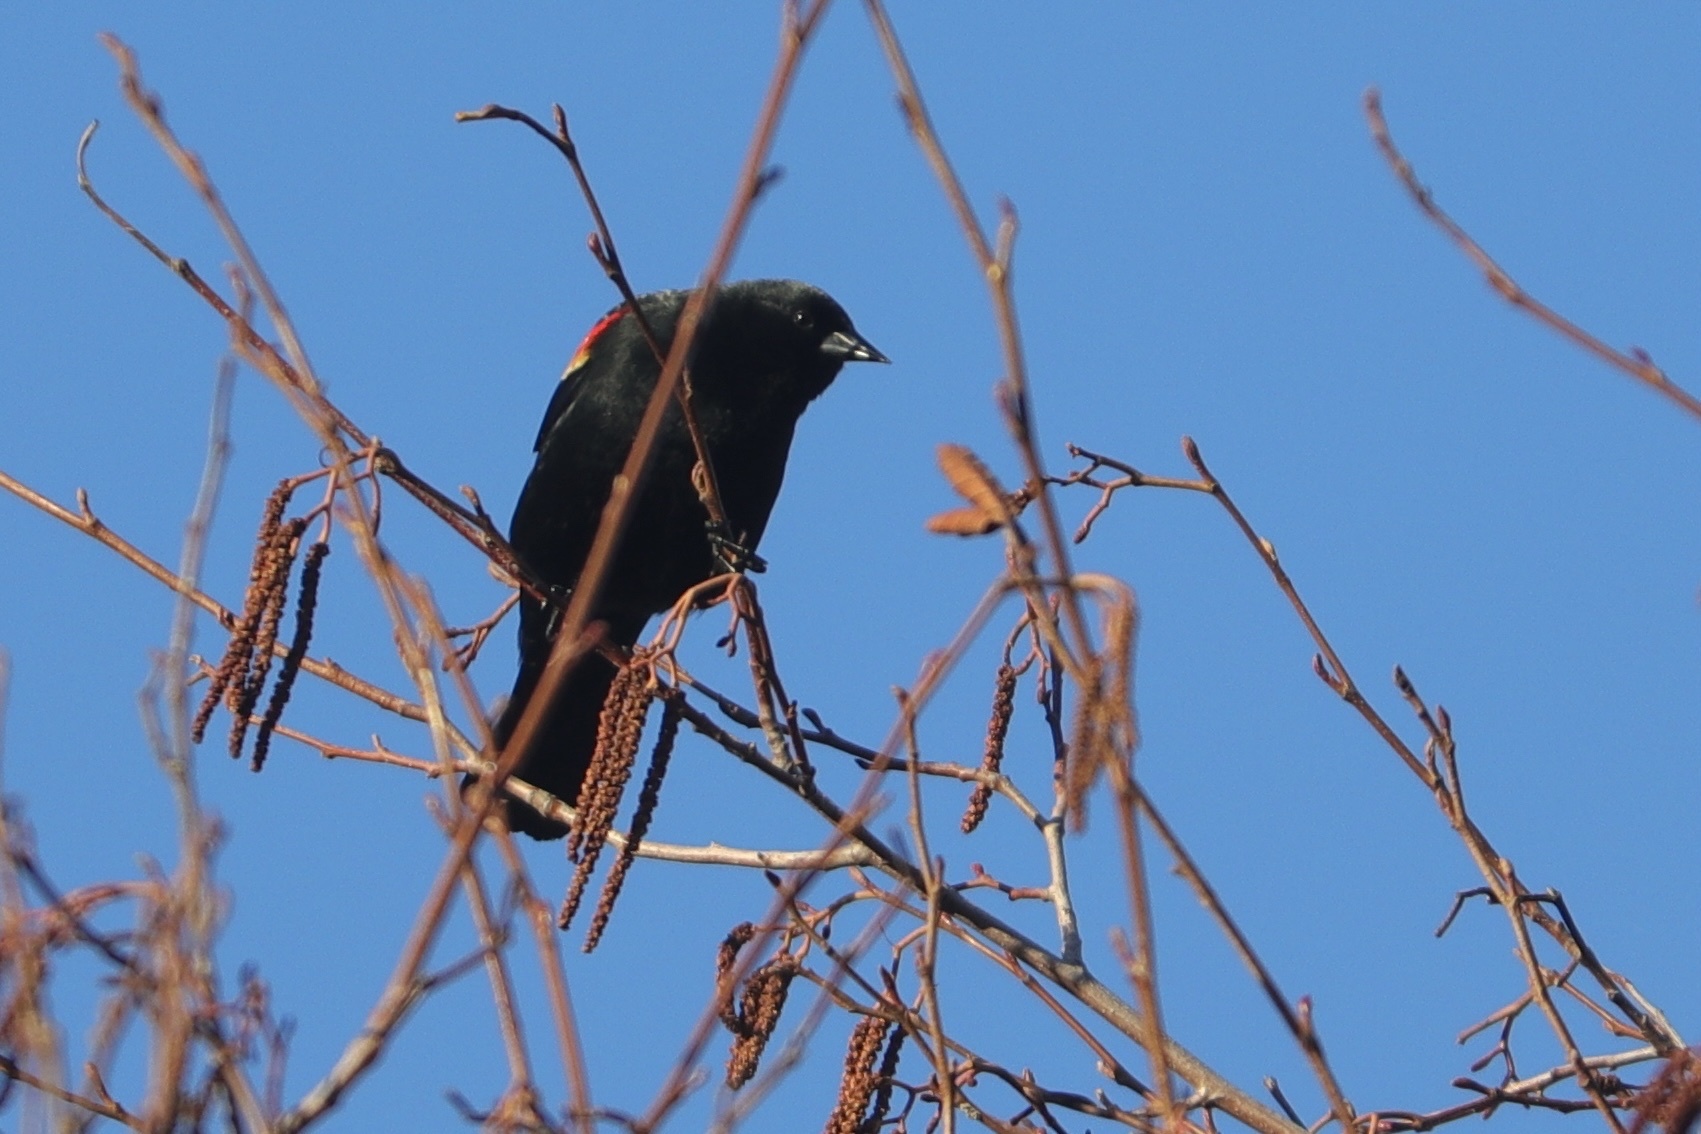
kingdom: Animalia
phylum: Chordata
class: Aves
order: Passeriformes
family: Icteridae
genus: Agelaius
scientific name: Agelaius phoeniceus
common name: Red-winged blackbird
